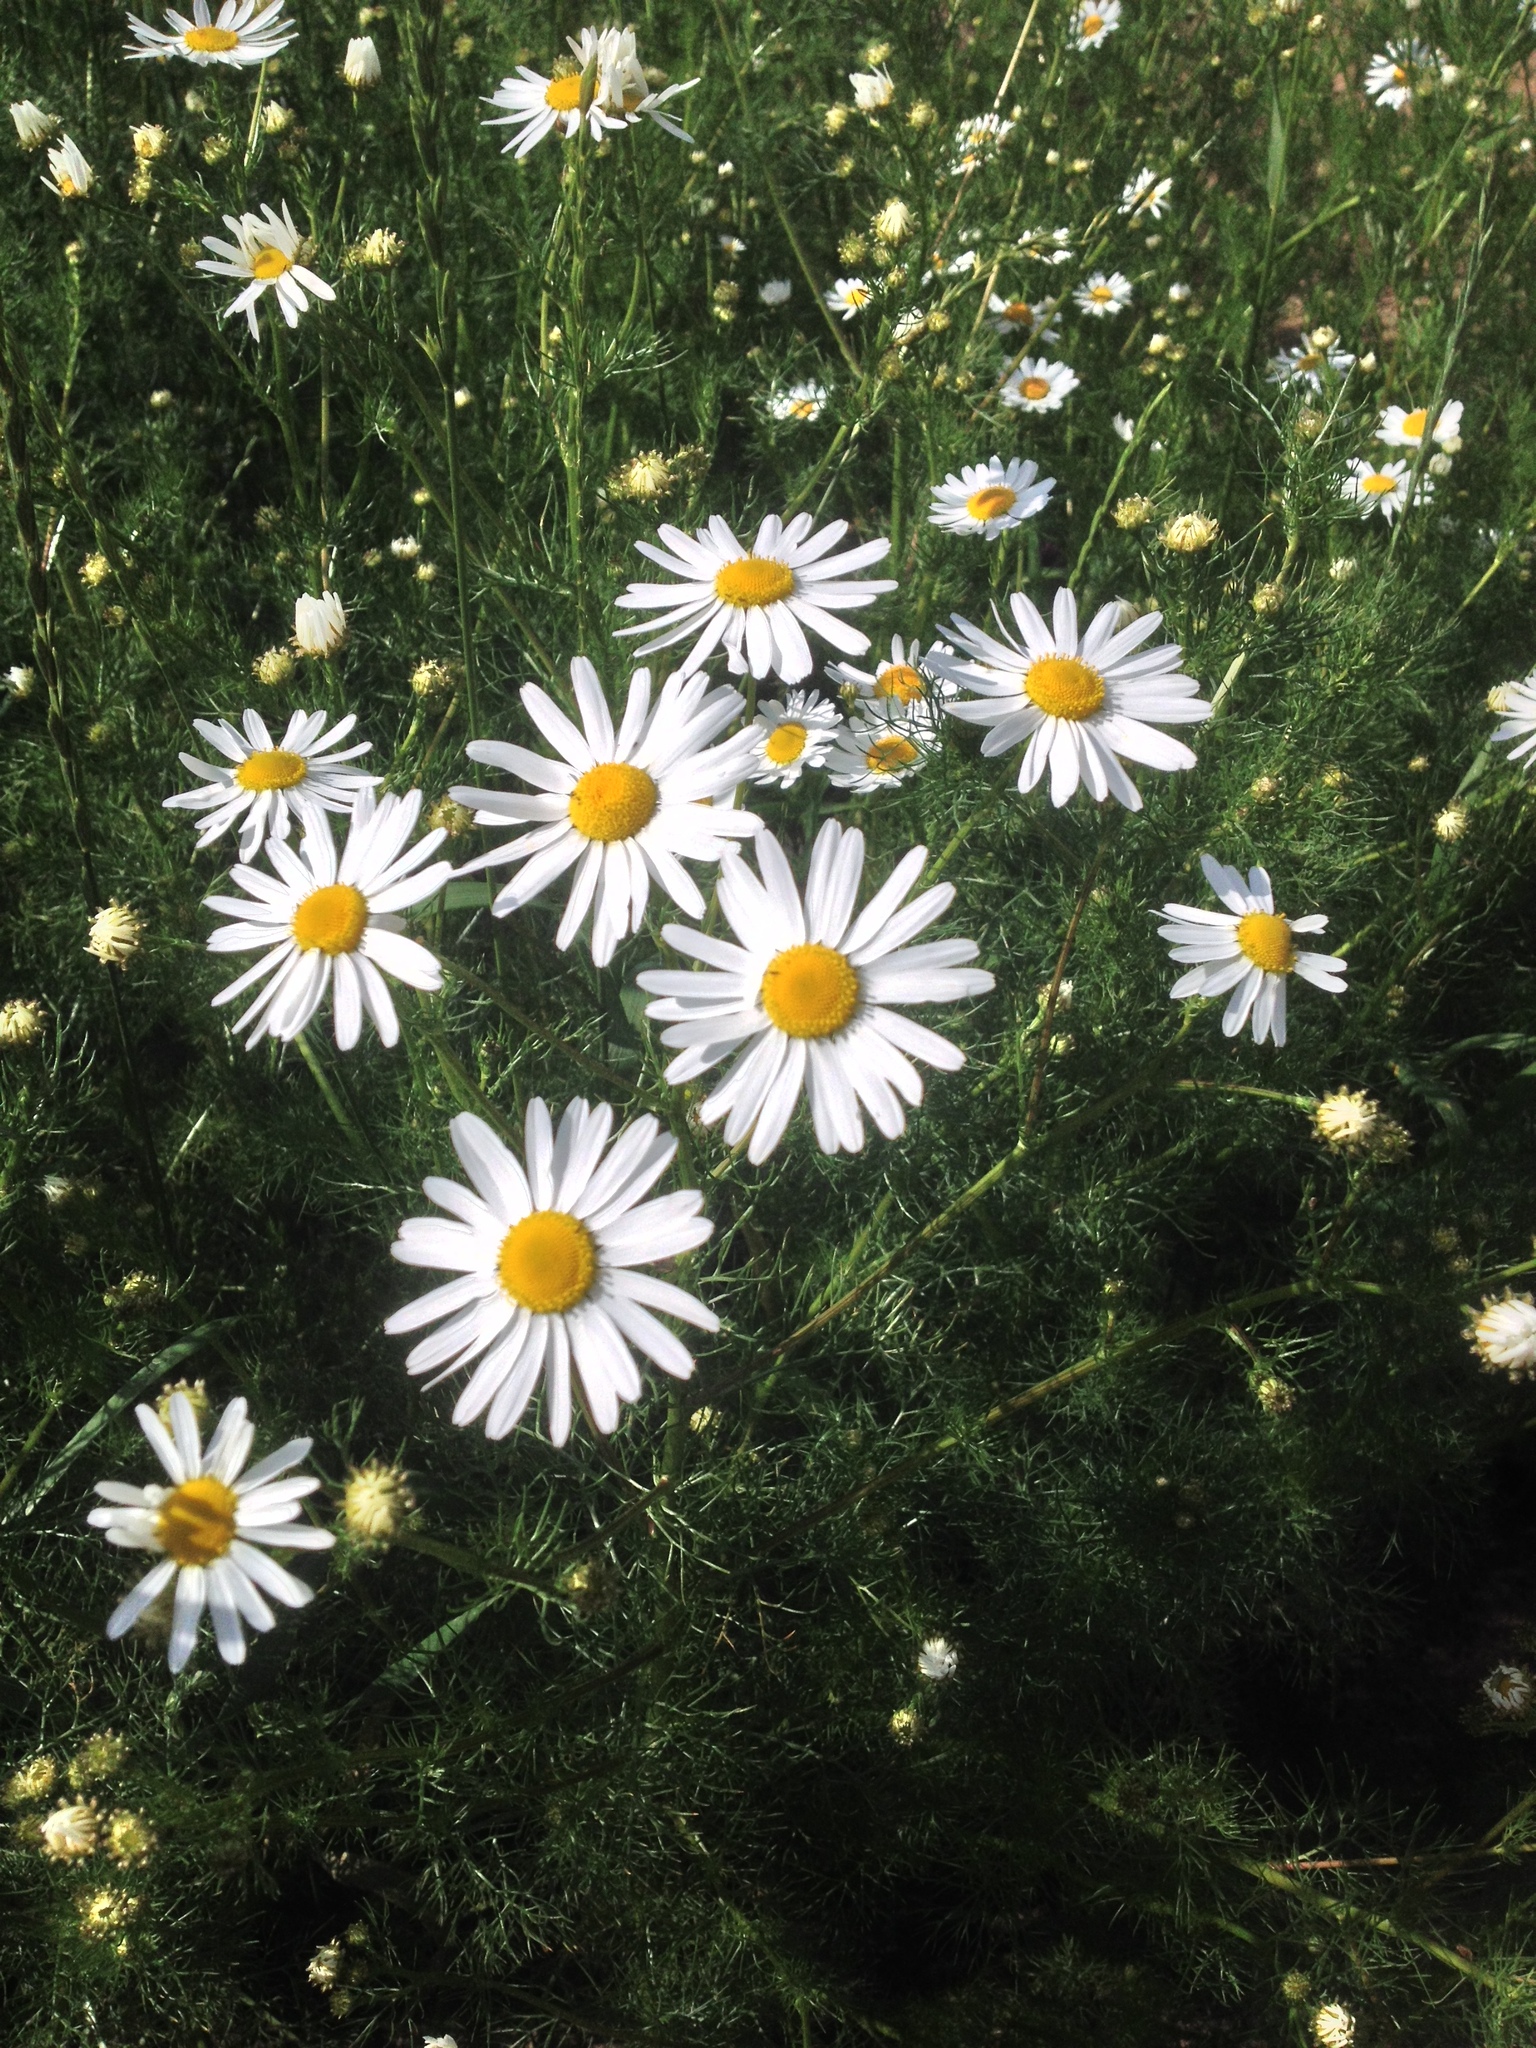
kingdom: Plantae
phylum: Tracheophyta
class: Magnoliopsida
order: Asterales
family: Asteraceae
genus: Tripleurospermum
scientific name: Tripleurospermum inodorum
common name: Scentless mayweed
